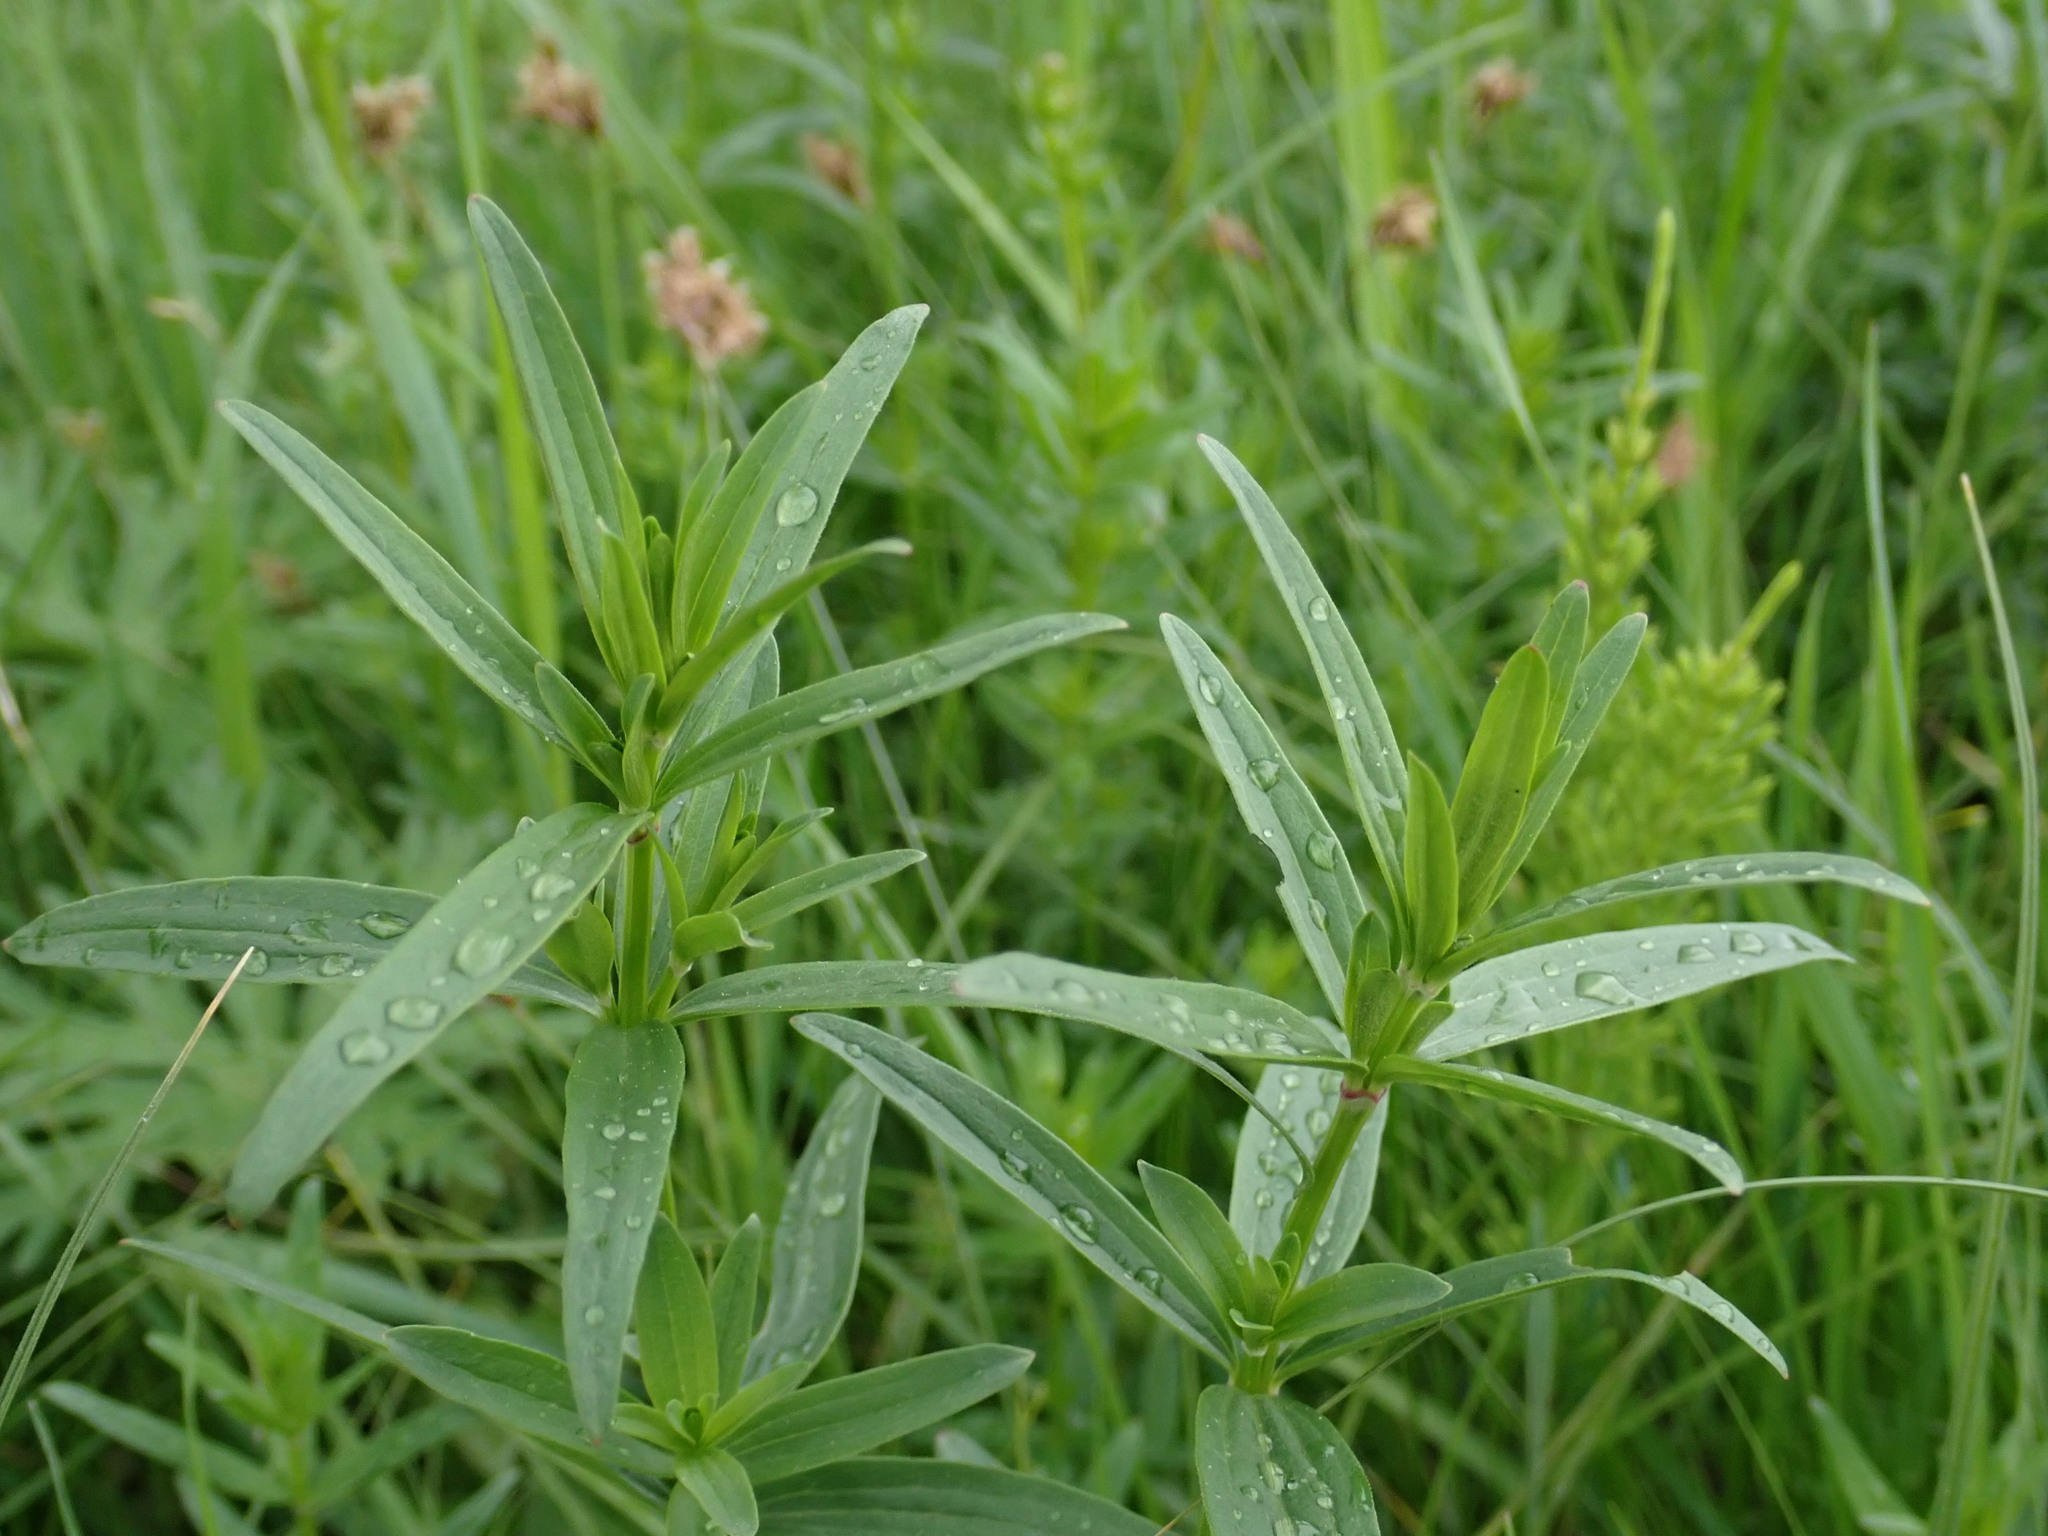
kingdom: Plantae
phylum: Tracheophyta
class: Magnoliopsida
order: Gentianales
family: Rubiaceae
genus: Galium
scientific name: Galium boreale
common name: Northern bedstraw
